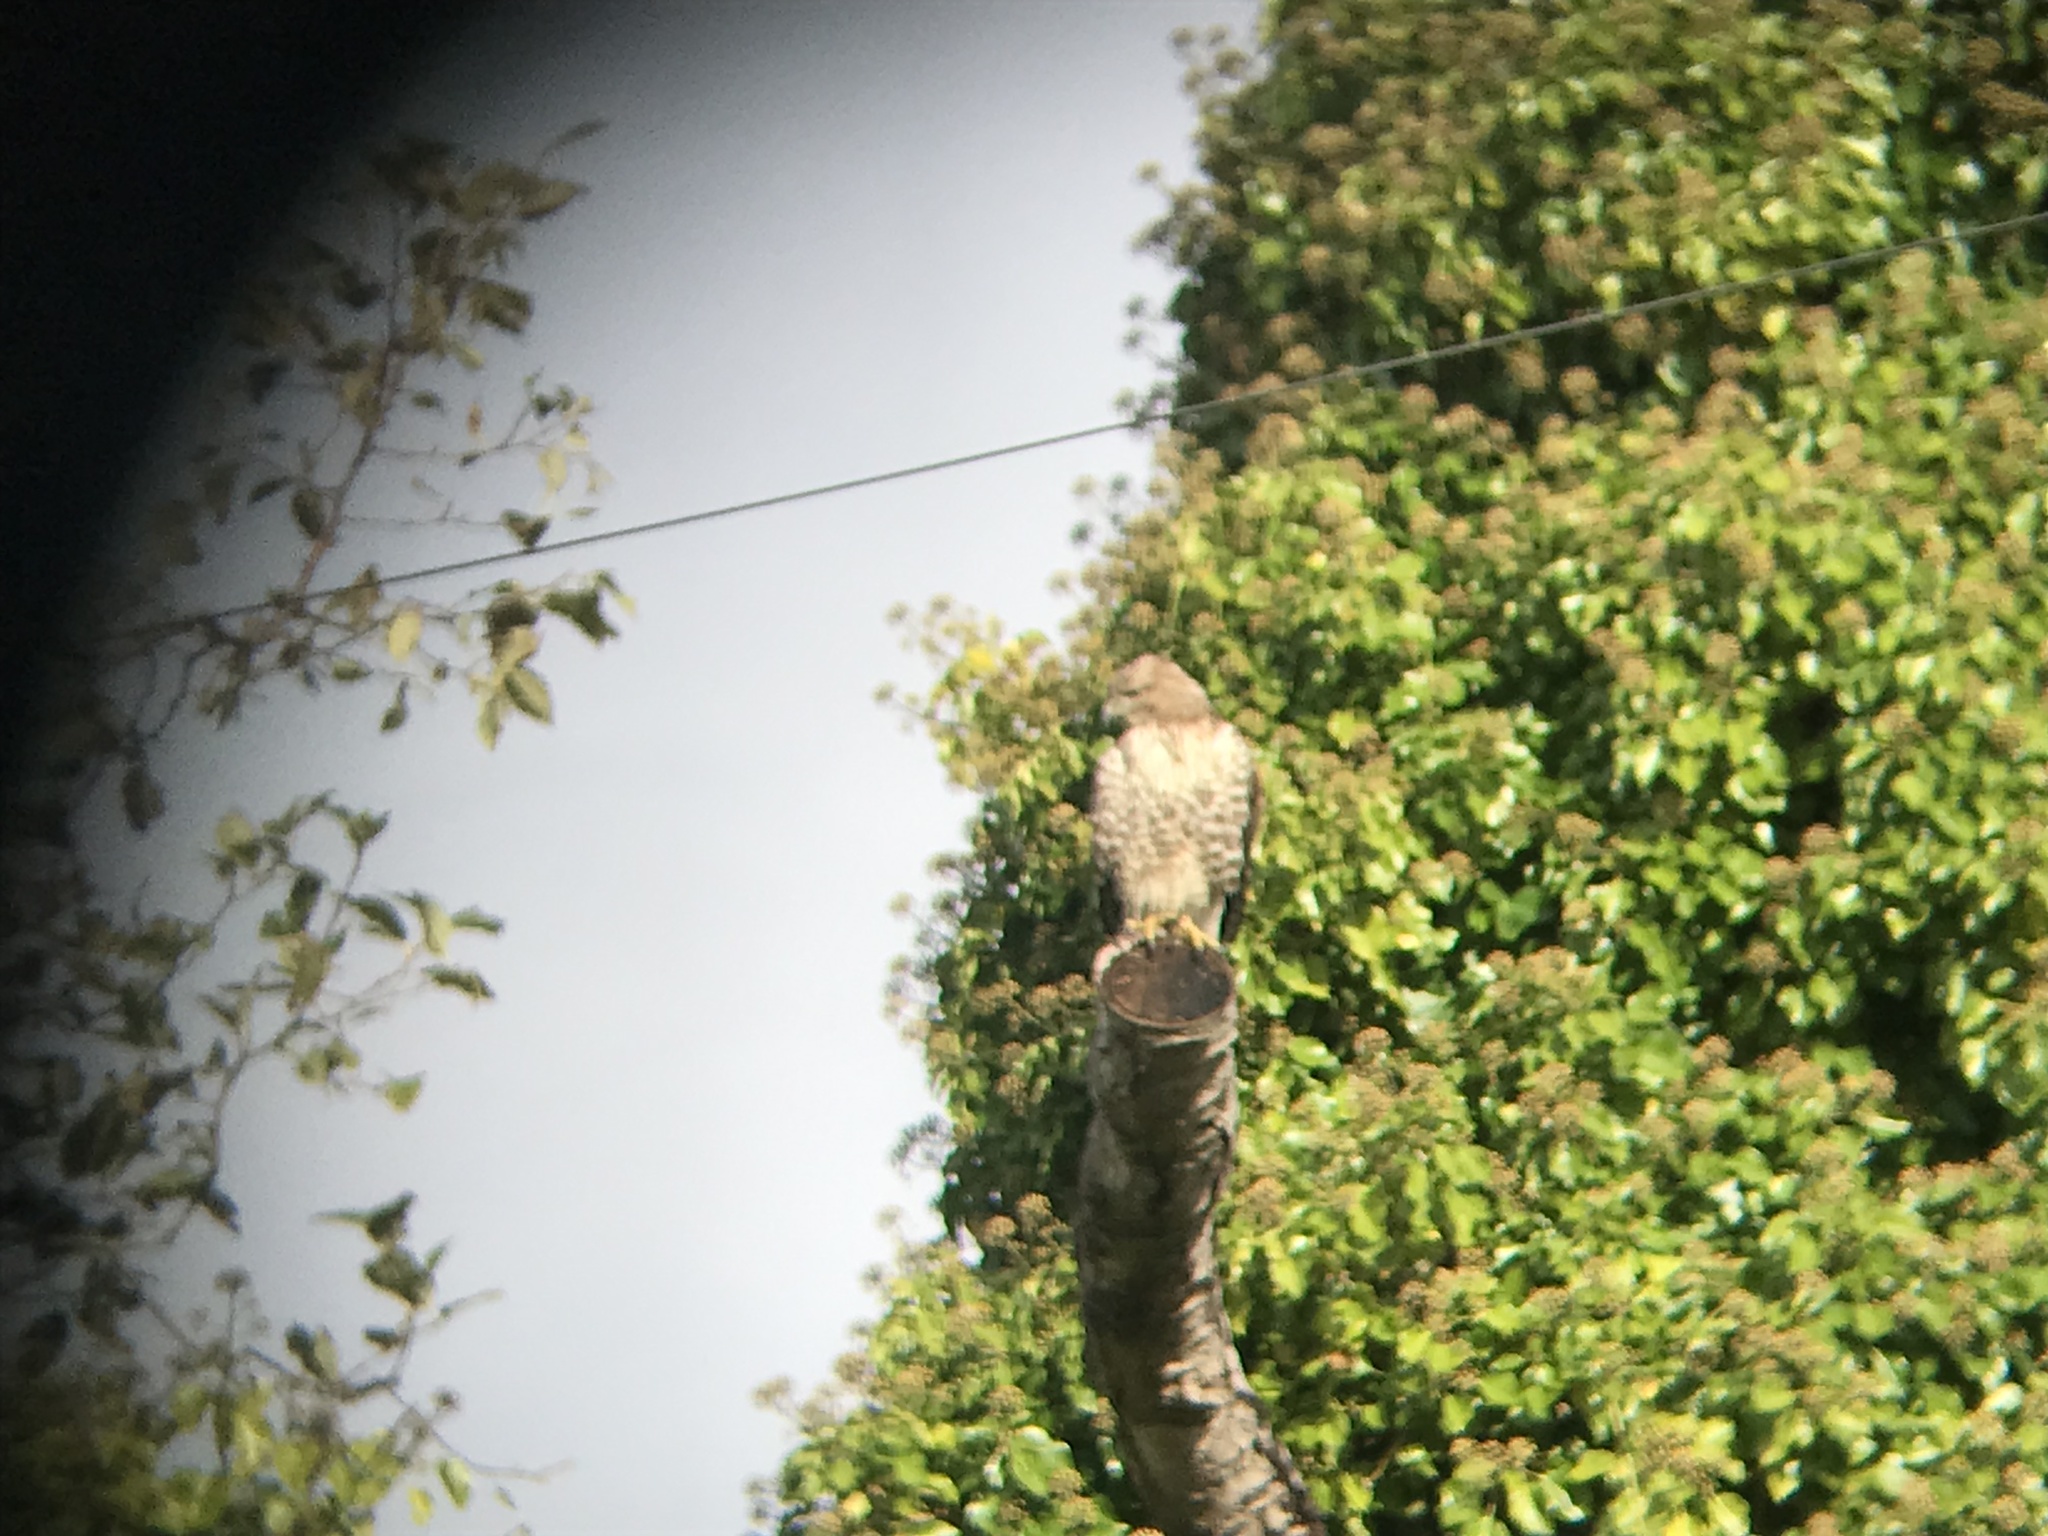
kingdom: Animalia
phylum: Chordata
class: Aves
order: Accipitriformes
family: Accipitridae
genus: Buteo
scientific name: Buteo jamaicensis
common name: Red-tailed hawk
